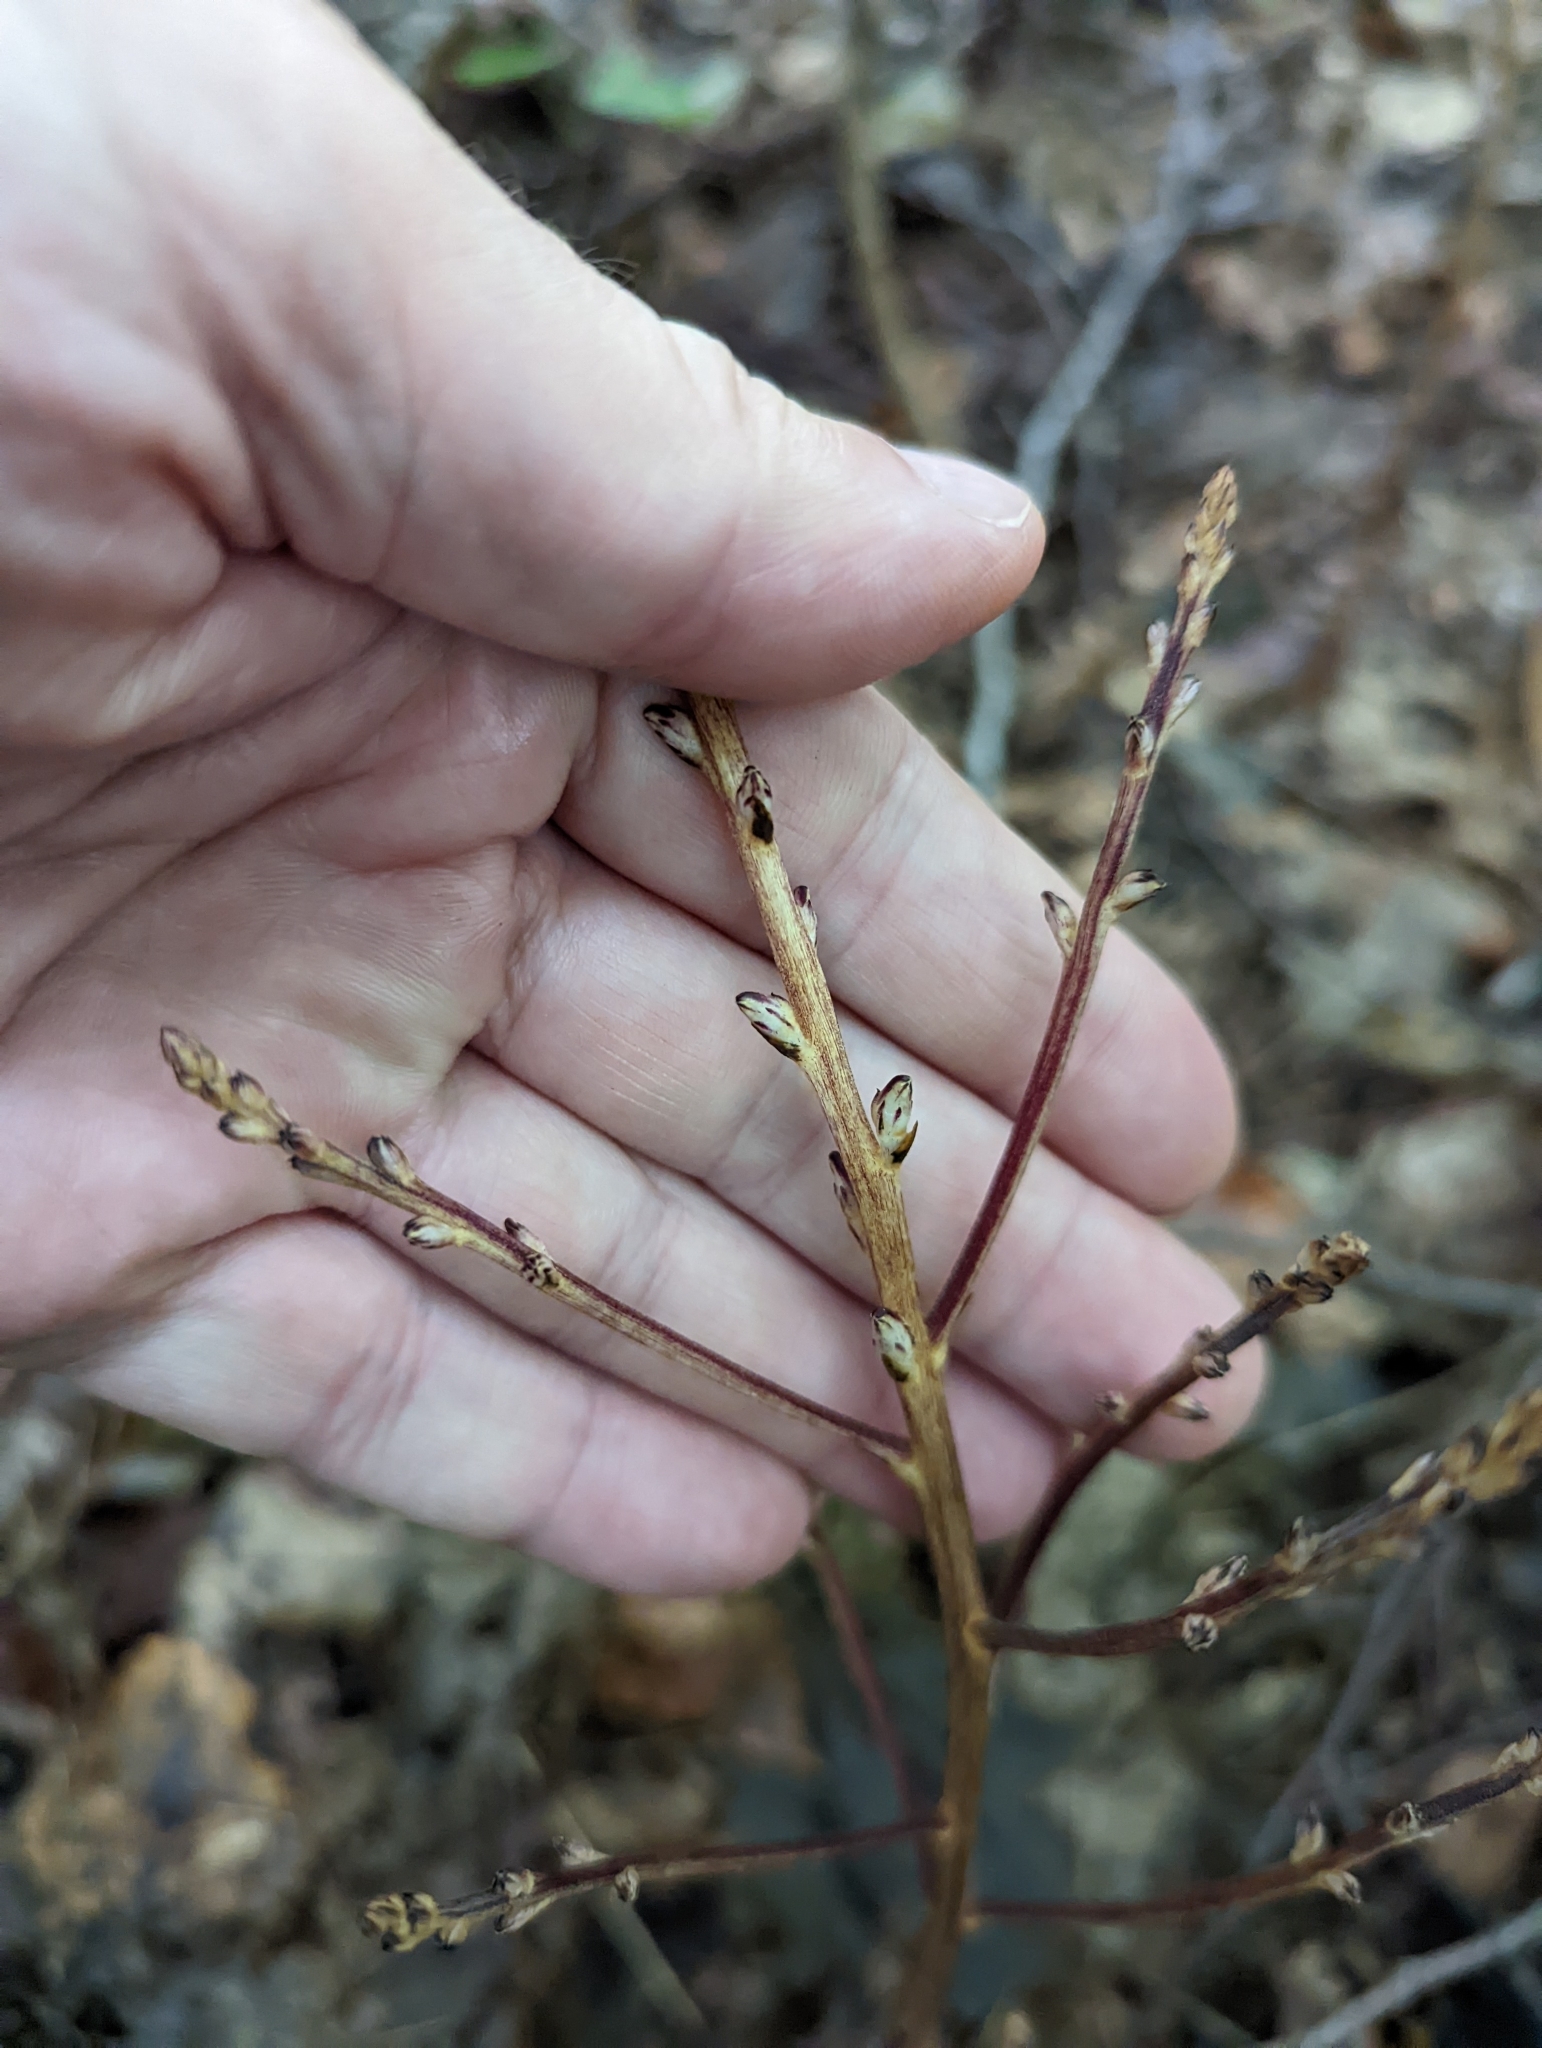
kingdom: Plantae
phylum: Tracheophyta
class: Magnoliopsida
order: Lamiales
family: Orobanchaceae
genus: Epifagus
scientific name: Epifagus virginiana
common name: Beechdrops
